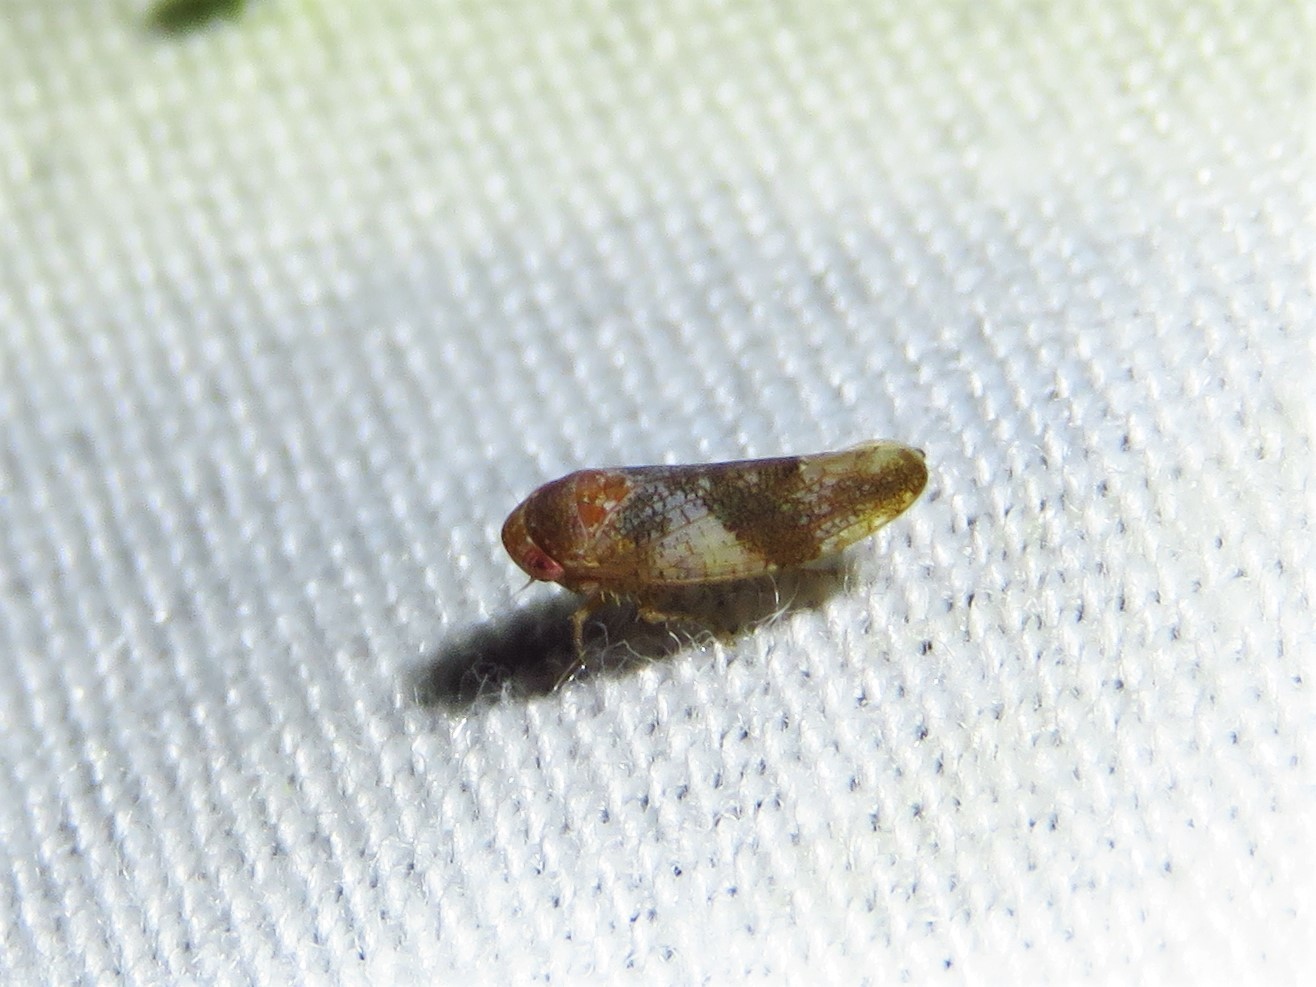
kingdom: Animalia
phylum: Arthropoda
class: Insecta
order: Hemiptera
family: Cicadellidae
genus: Norvellina
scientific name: Norvellina helenae
